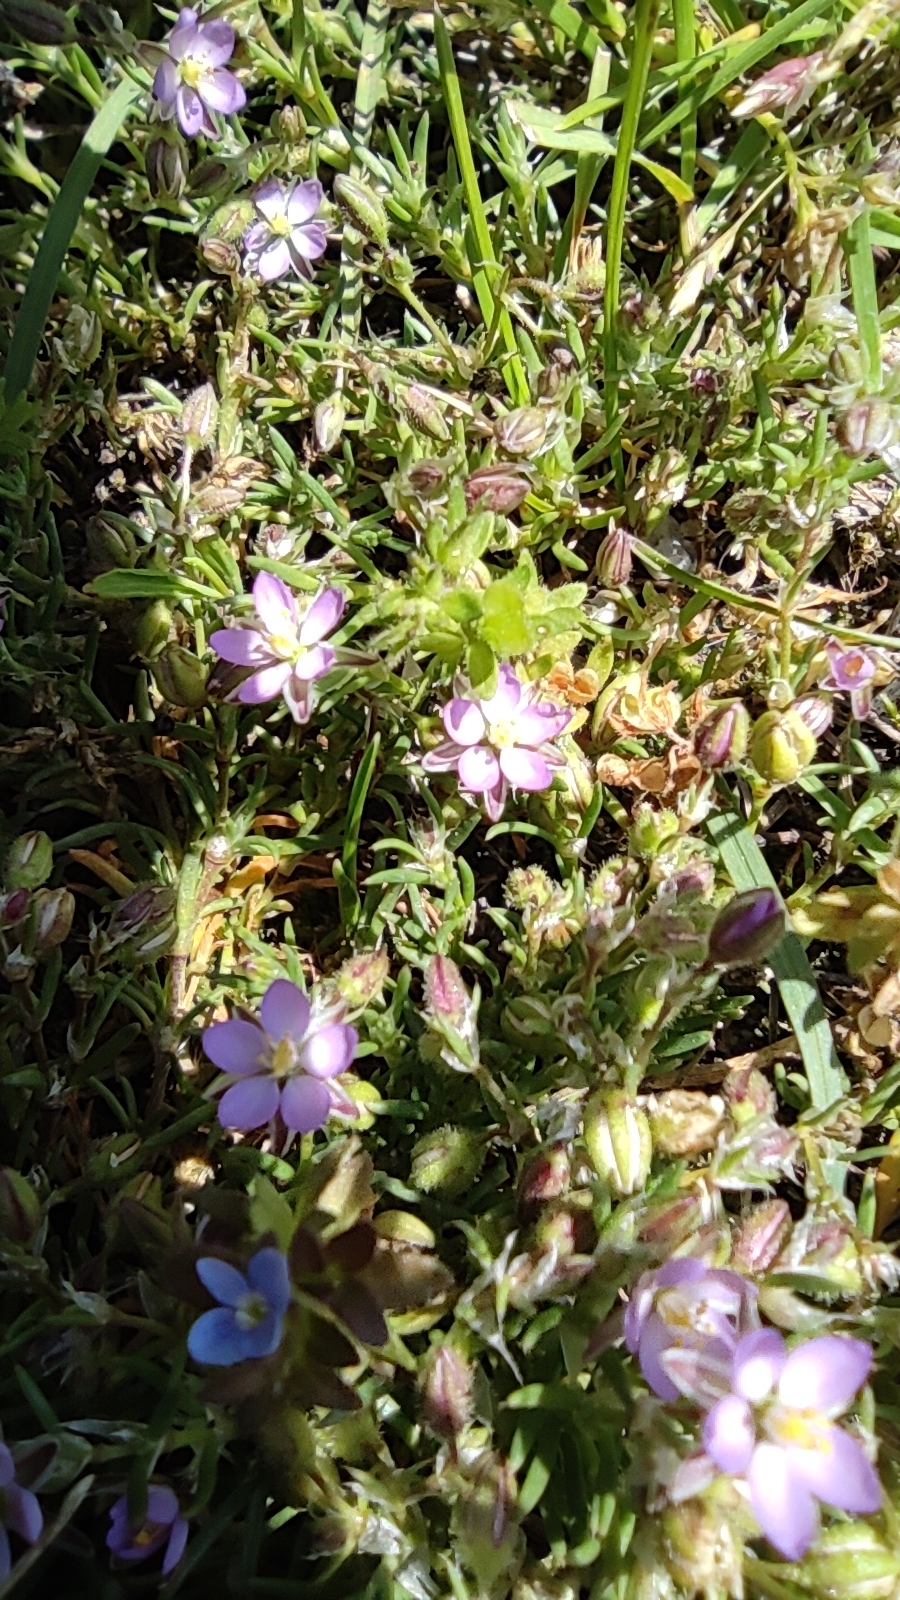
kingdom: Plantae
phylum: Tracheophyta
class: Magnoliopsida
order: Caryophyllales
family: Caryophyllaceae
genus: Spergularia
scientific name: Spergularia rubra
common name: Red sand-spurrey
